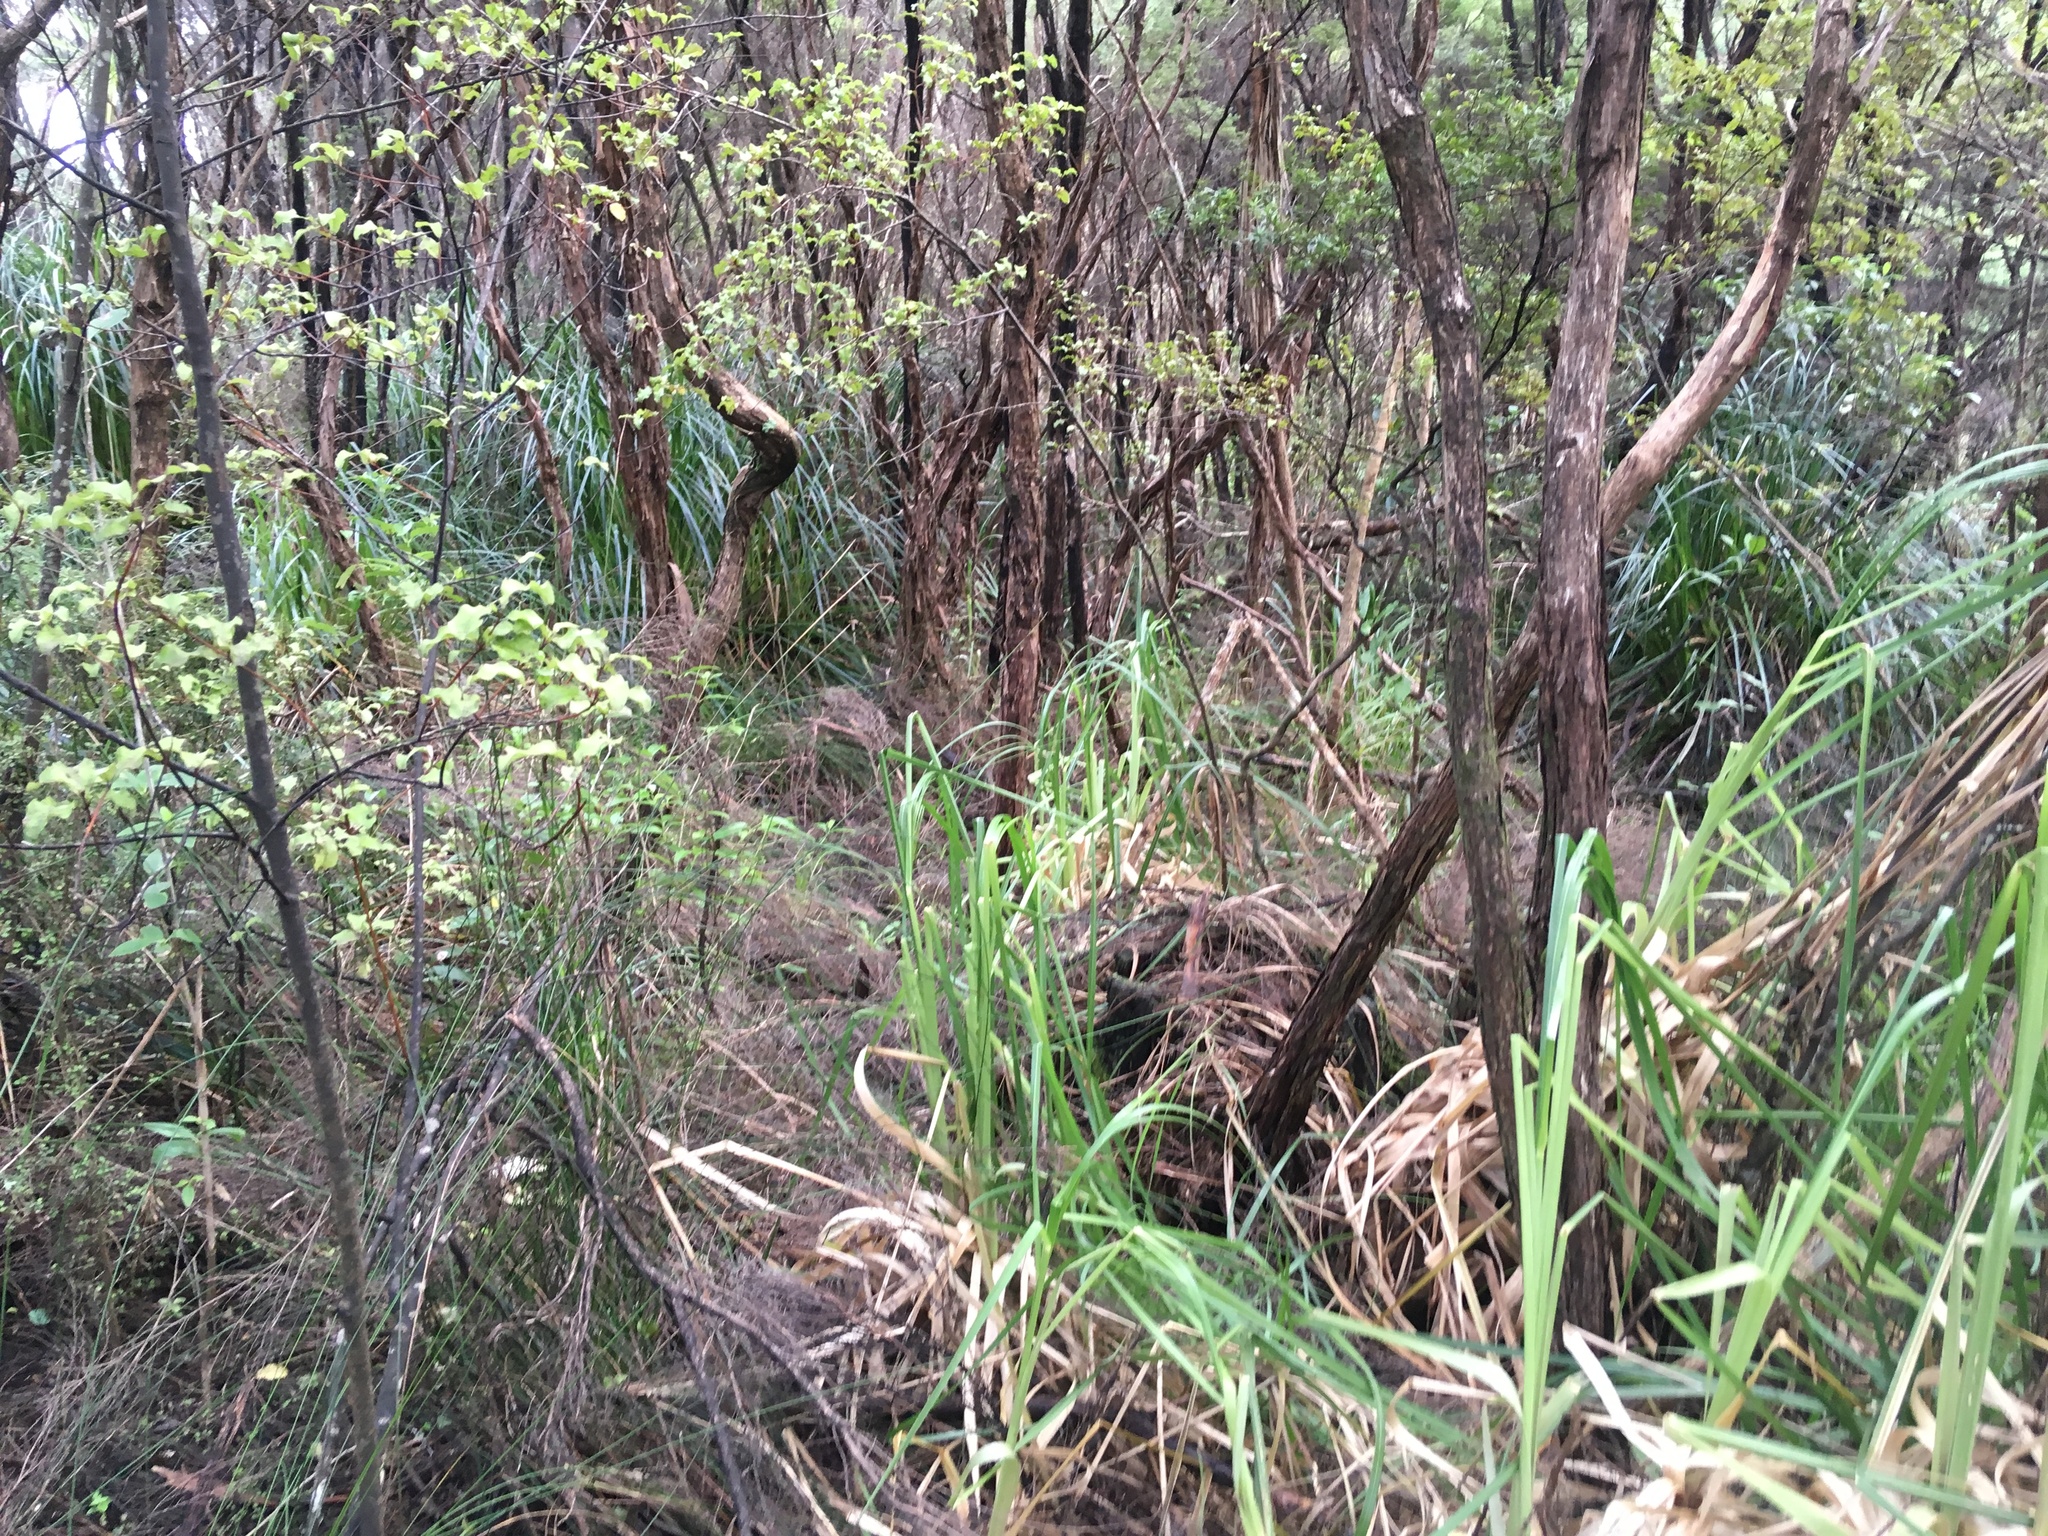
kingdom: Plantae
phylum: Tracheophyta
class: Liliopsida
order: Poales
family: Poaceae
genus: Cortaderia
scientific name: Cortaderia selloana
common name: Uruguayan pampas grass
